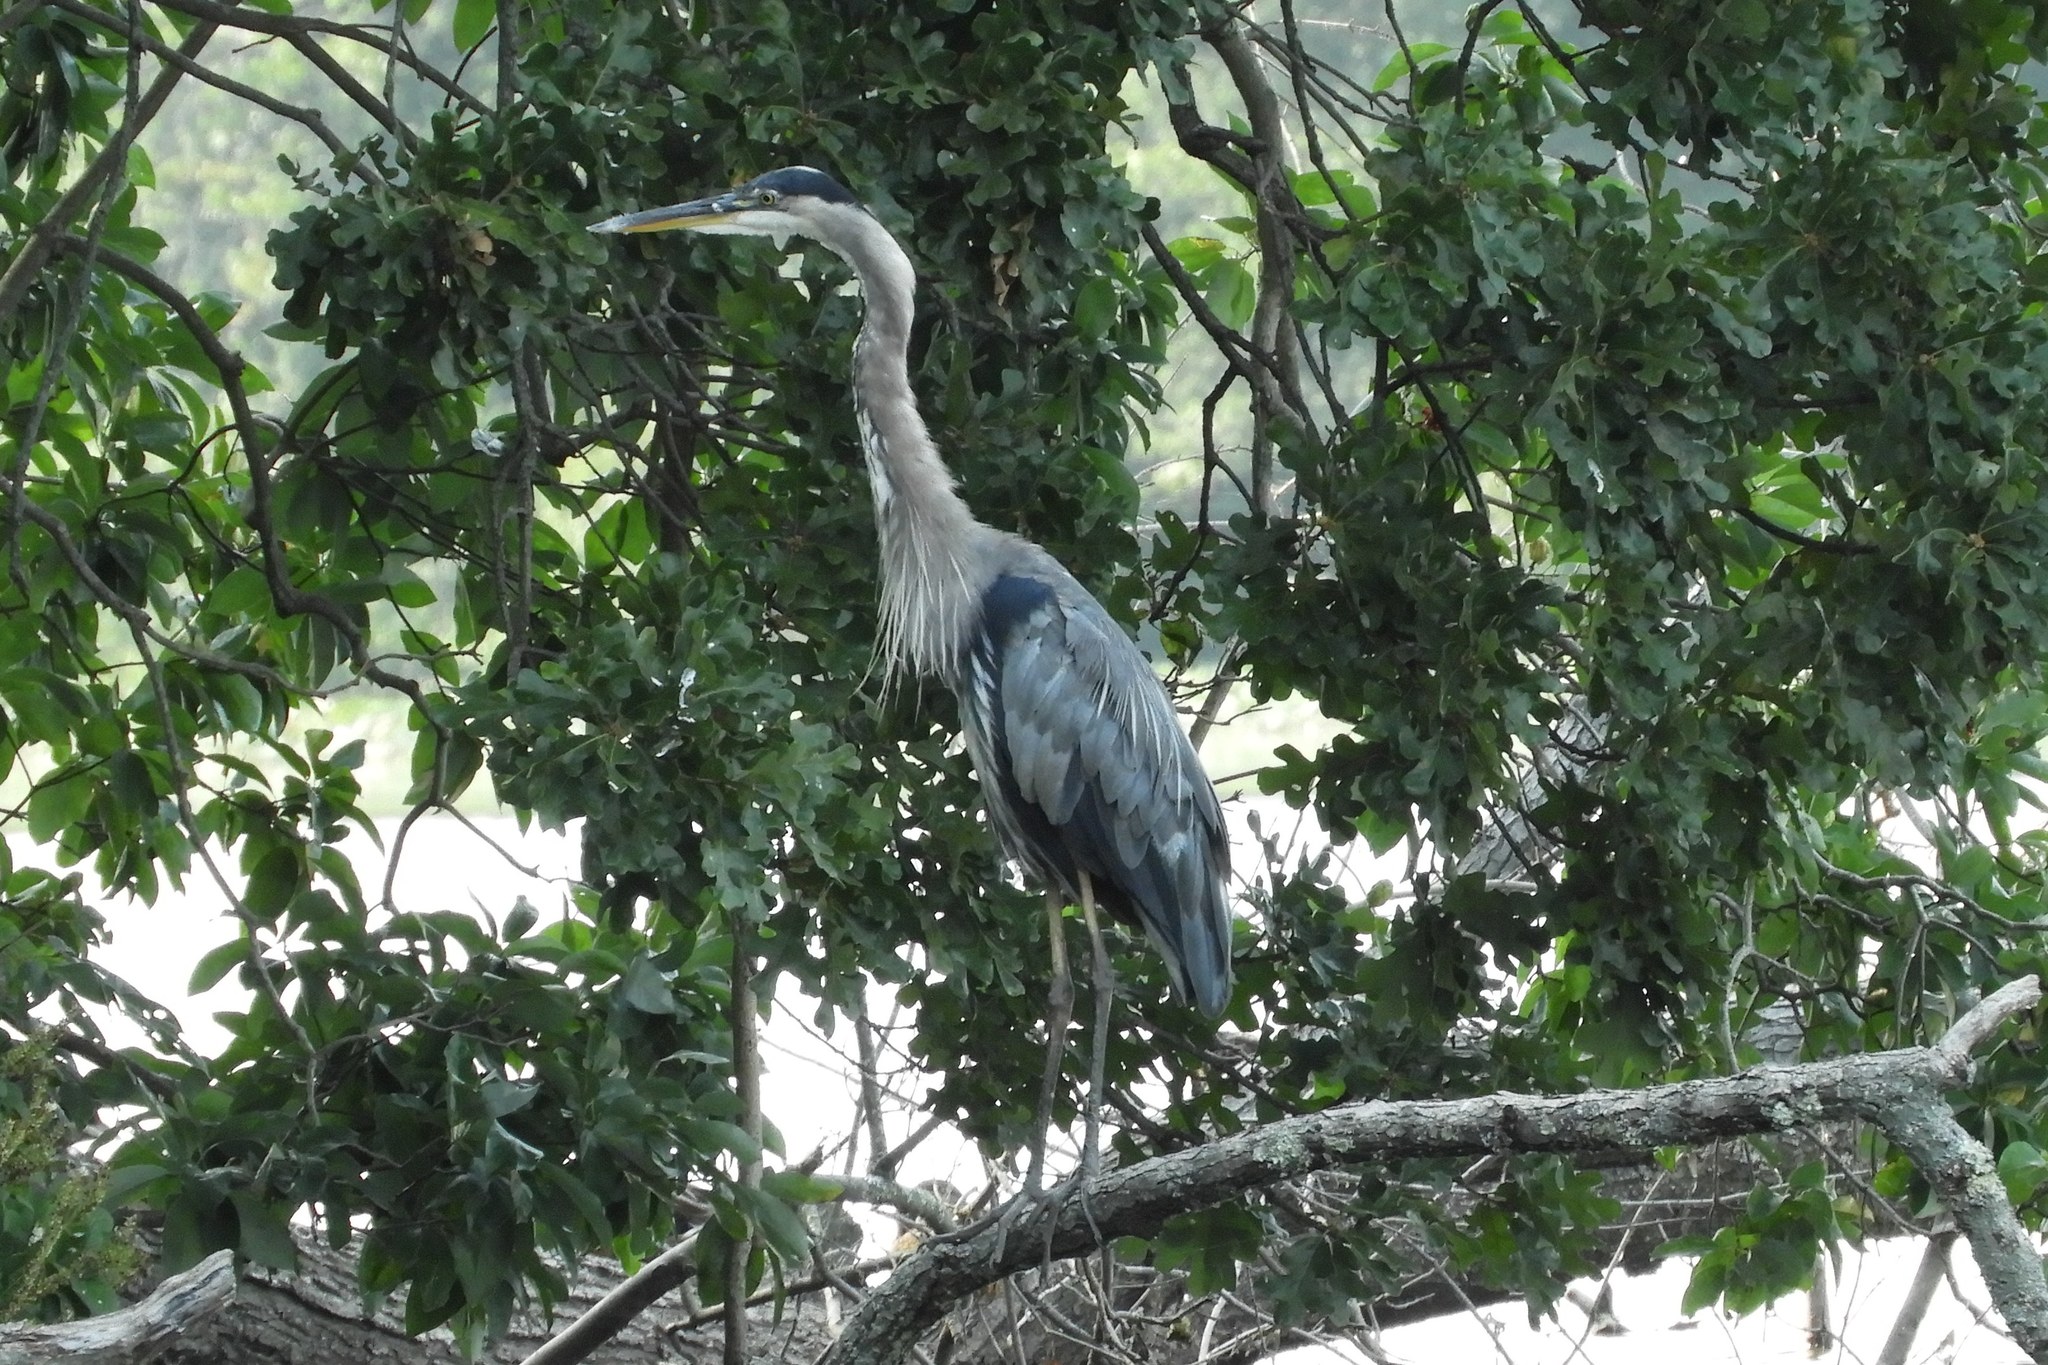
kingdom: Animalia
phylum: Chordata
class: Aves
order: Pelecaniformes
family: Ardeidae
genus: Ardea
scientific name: Ardea herodias
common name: Great blue heron
